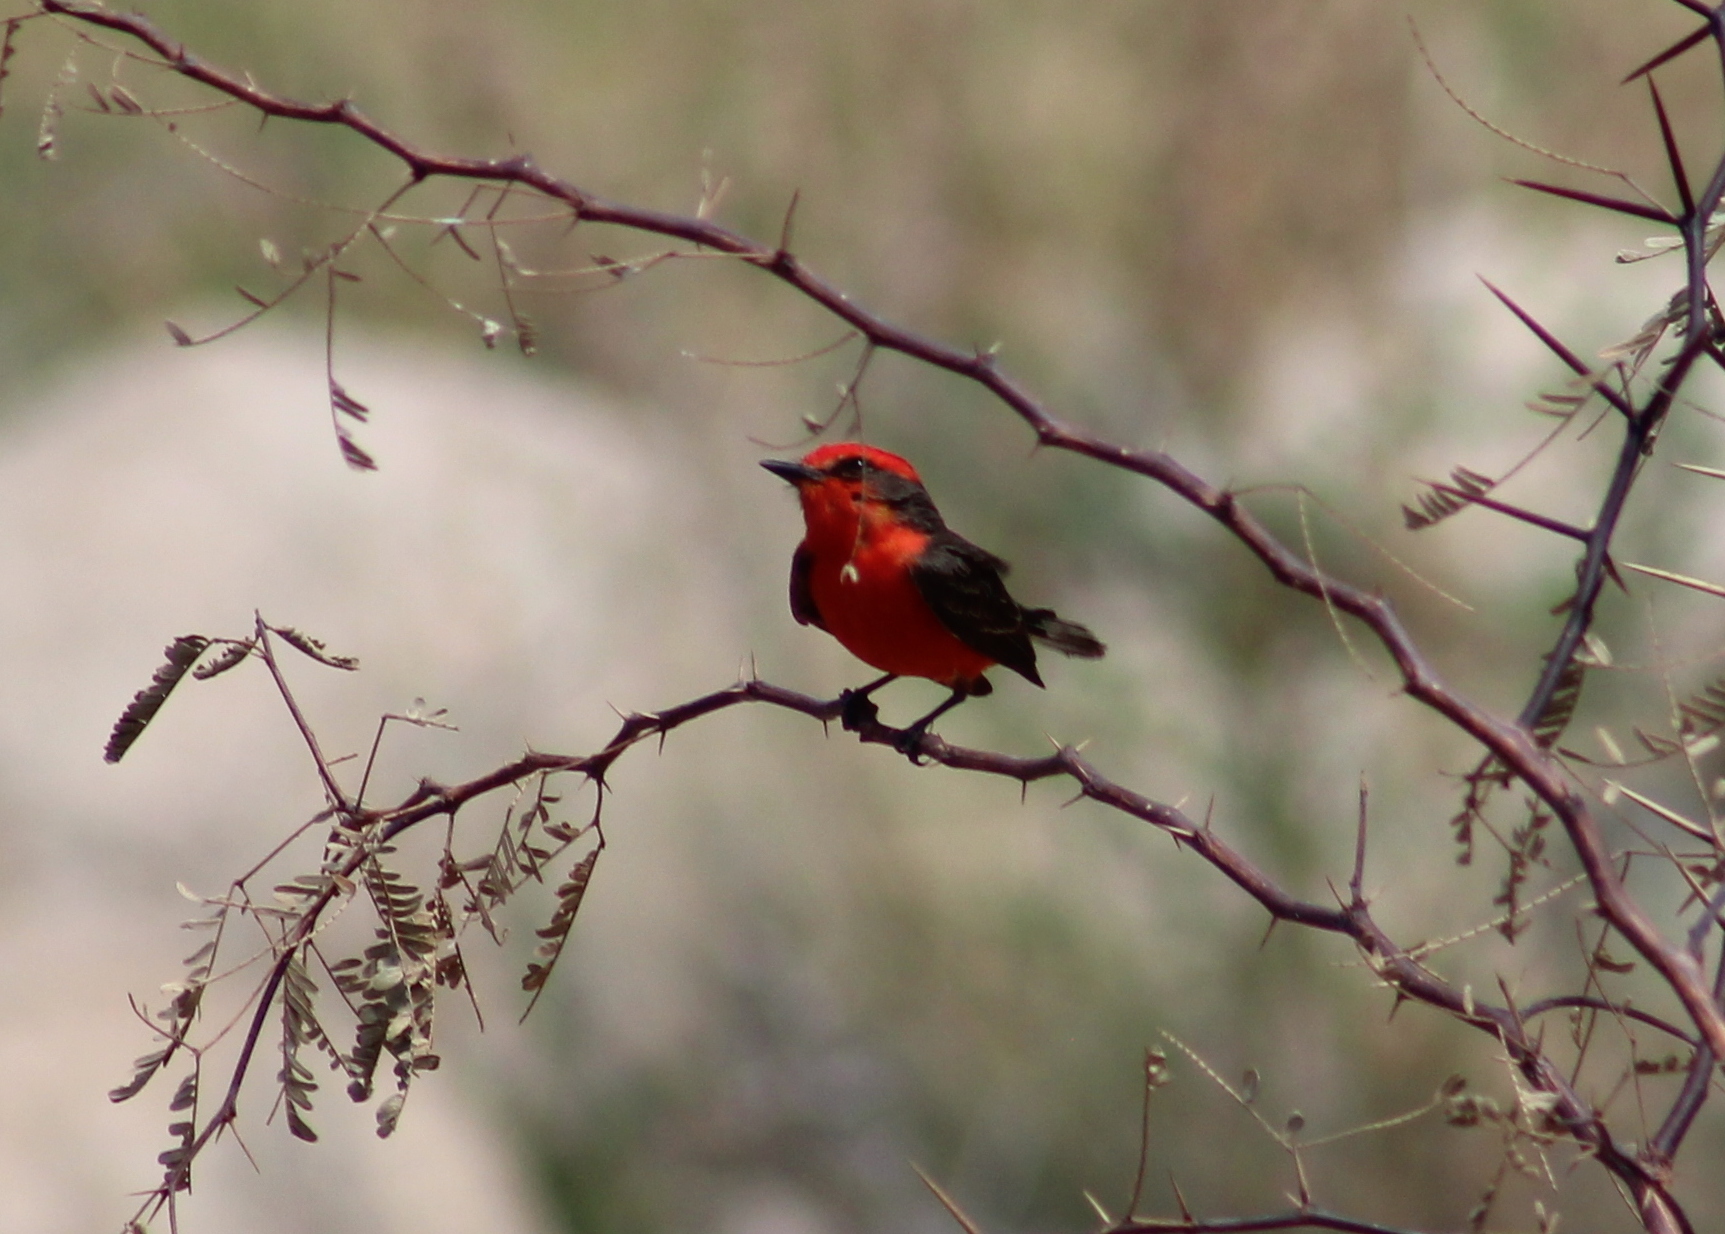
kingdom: Animalia
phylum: Chordata
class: Aves
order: Passeriformes
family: Tyrannidae
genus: Pyrocephalus
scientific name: Pyrocephalus rubinus
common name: Vermilion flycatcher
